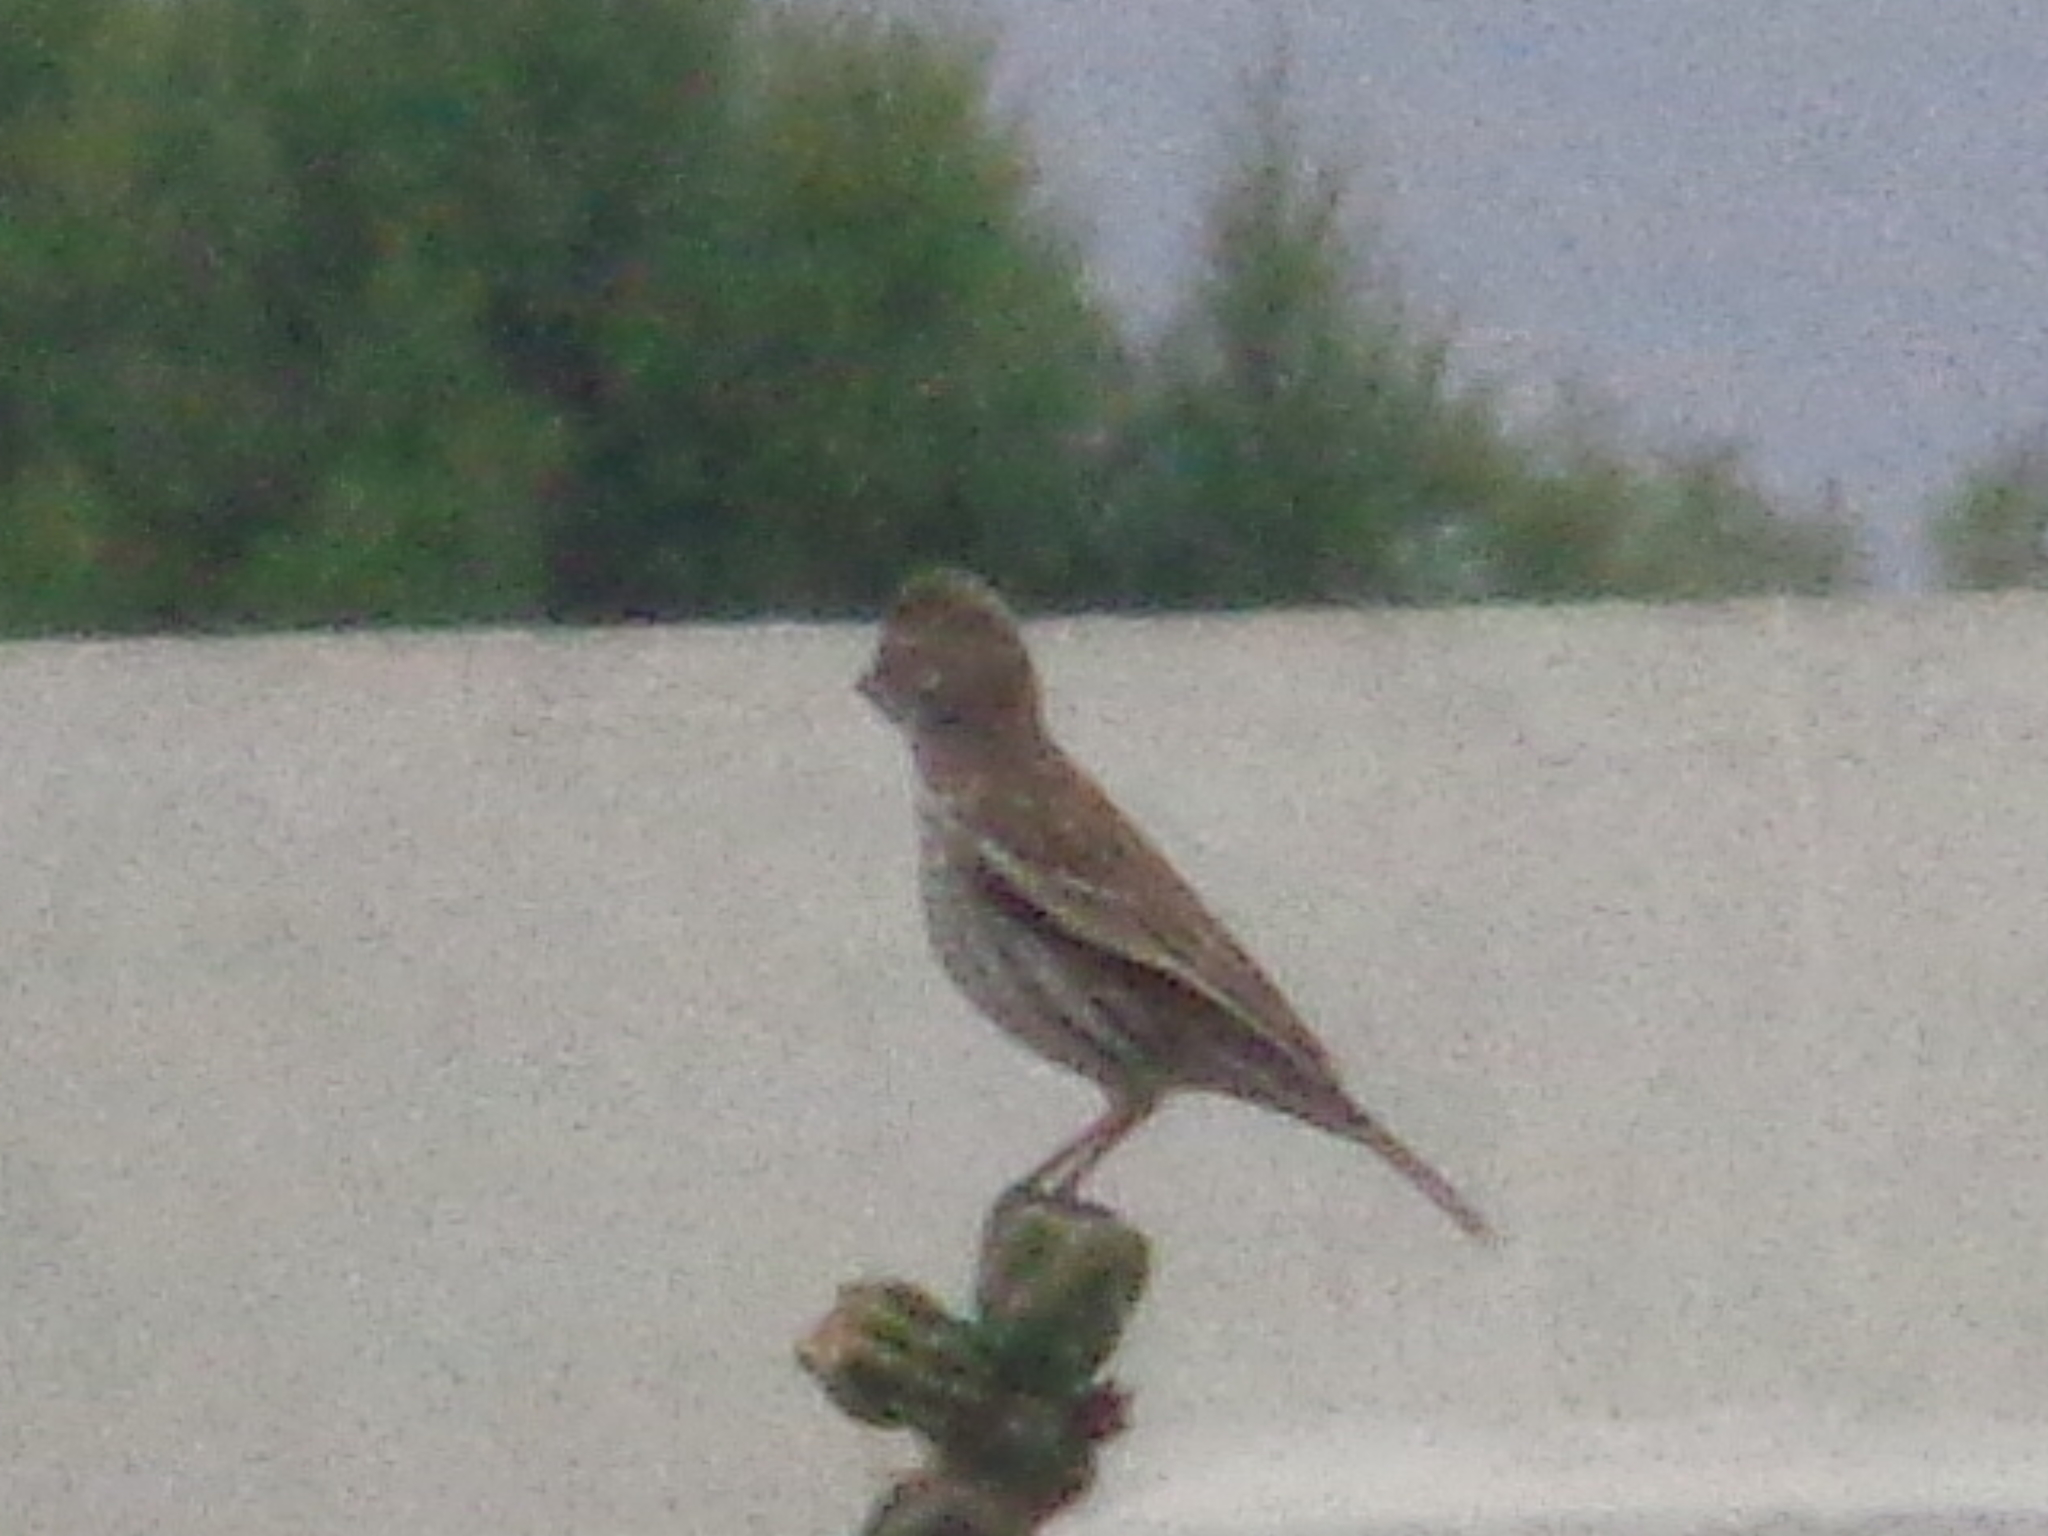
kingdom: Animalia
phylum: Chordata
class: Aves
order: Passeriformes
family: Passerellidae
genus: Calamospiza
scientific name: Calamospiza melanocorys
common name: Lark bunting
